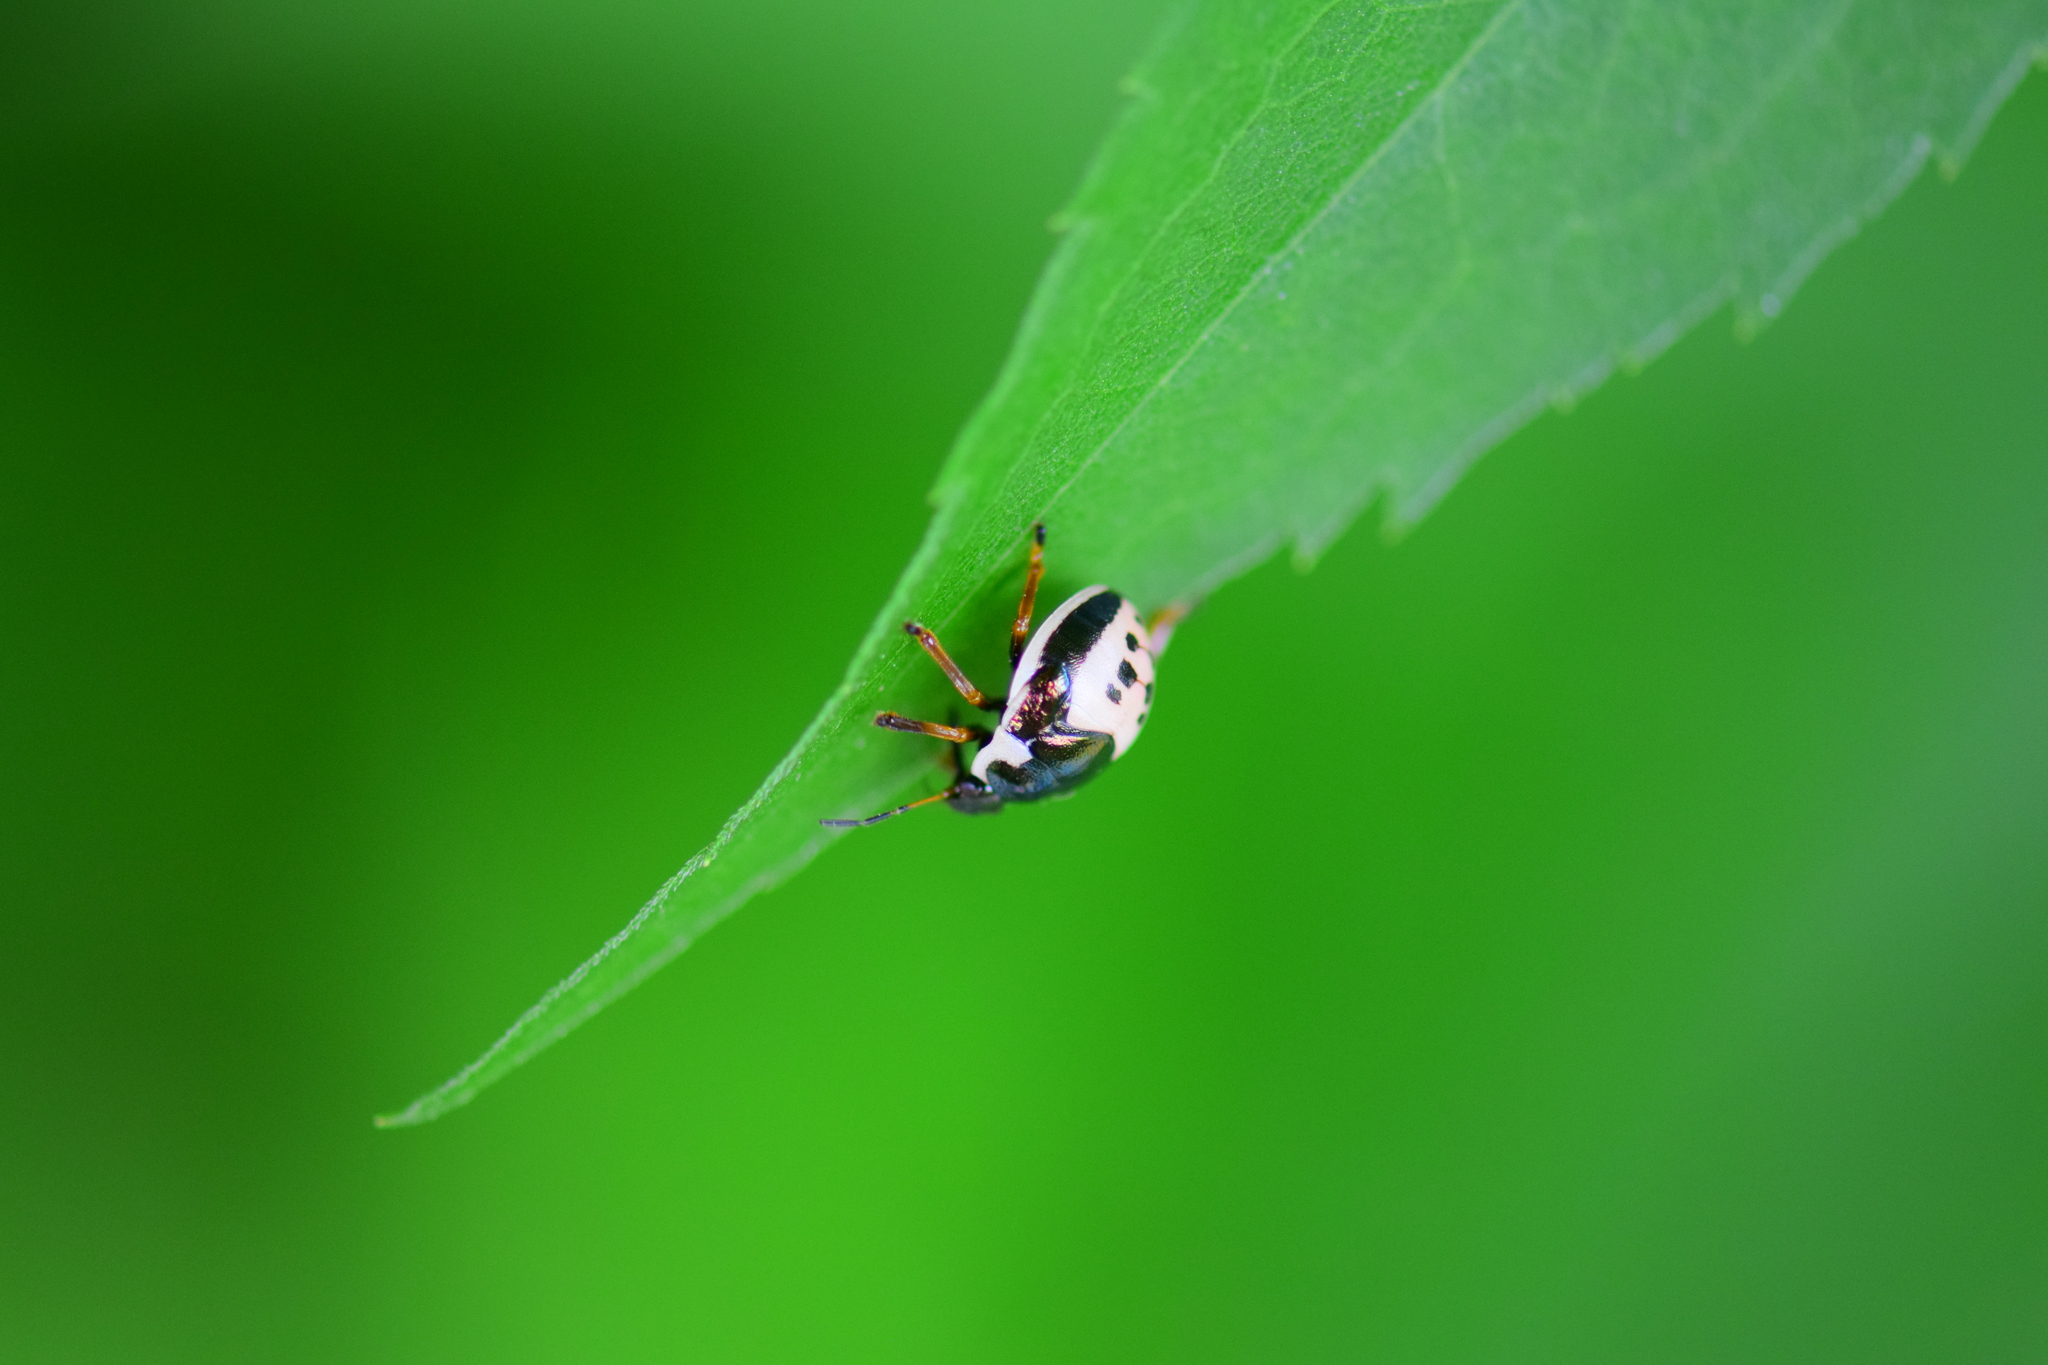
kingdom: Animalia
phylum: Arthropoda
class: Insecta
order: Hemiptera
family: Pentatomidae
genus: Stiretrus
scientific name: Stiretrus anchorago
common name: Anchor stink bug
